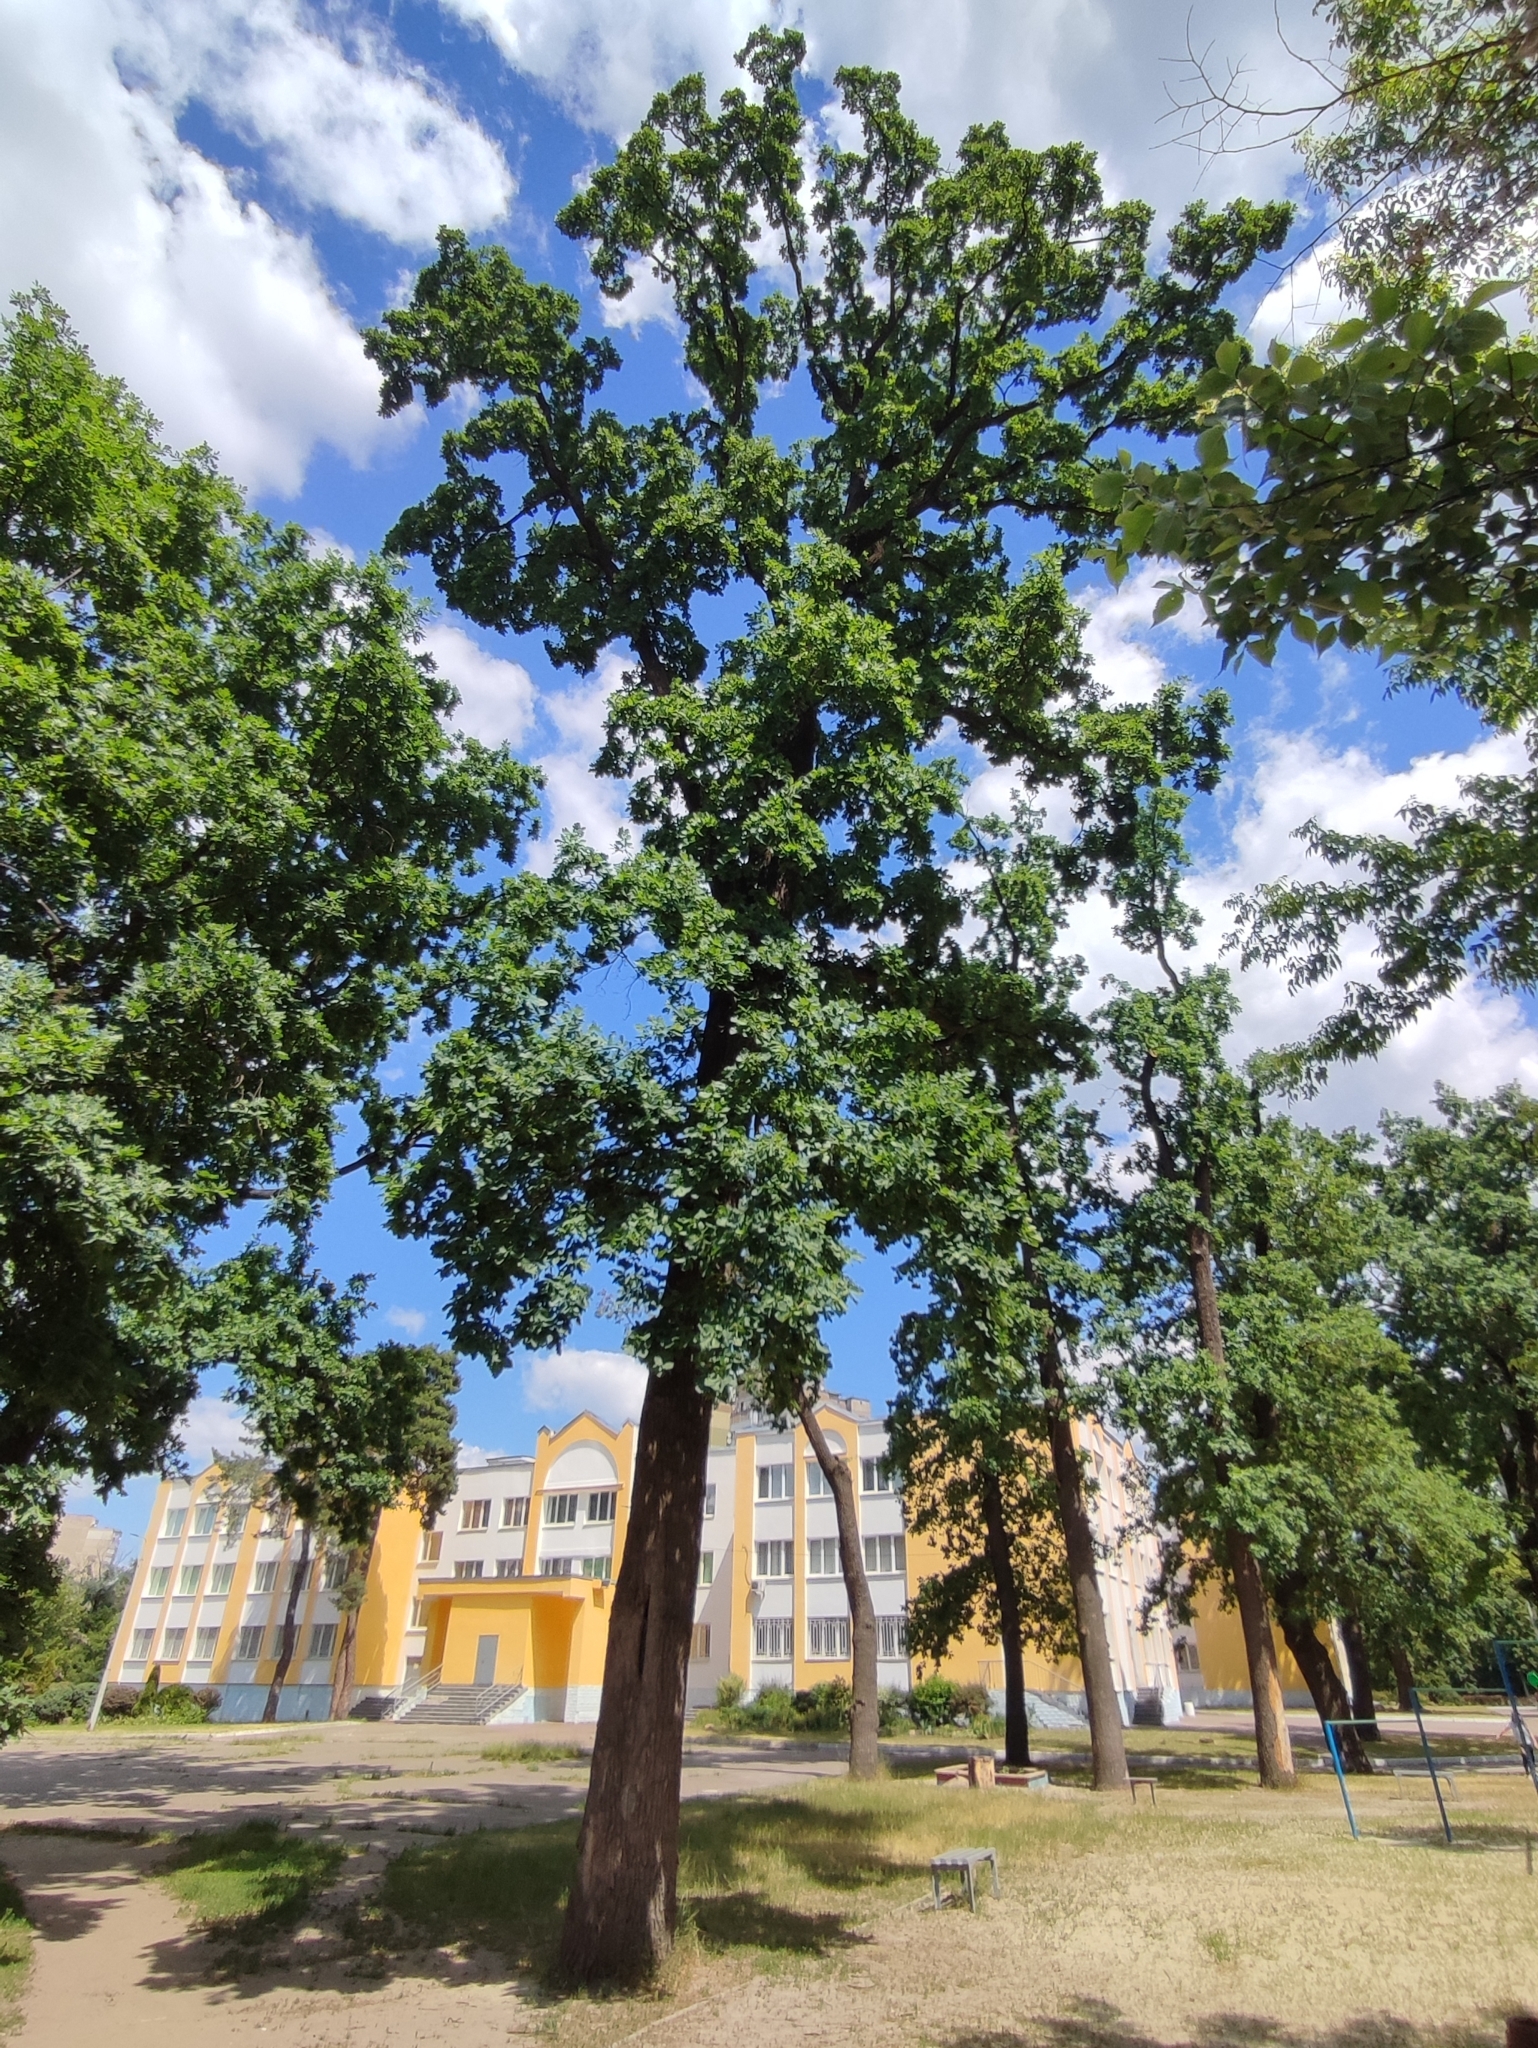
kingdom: Plantae
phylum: Tracheophyta
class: Magnoliopsida
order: Fagales
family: Fagaceae
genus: Quercus
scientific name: Quercus robur
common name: Pedunculate oak
